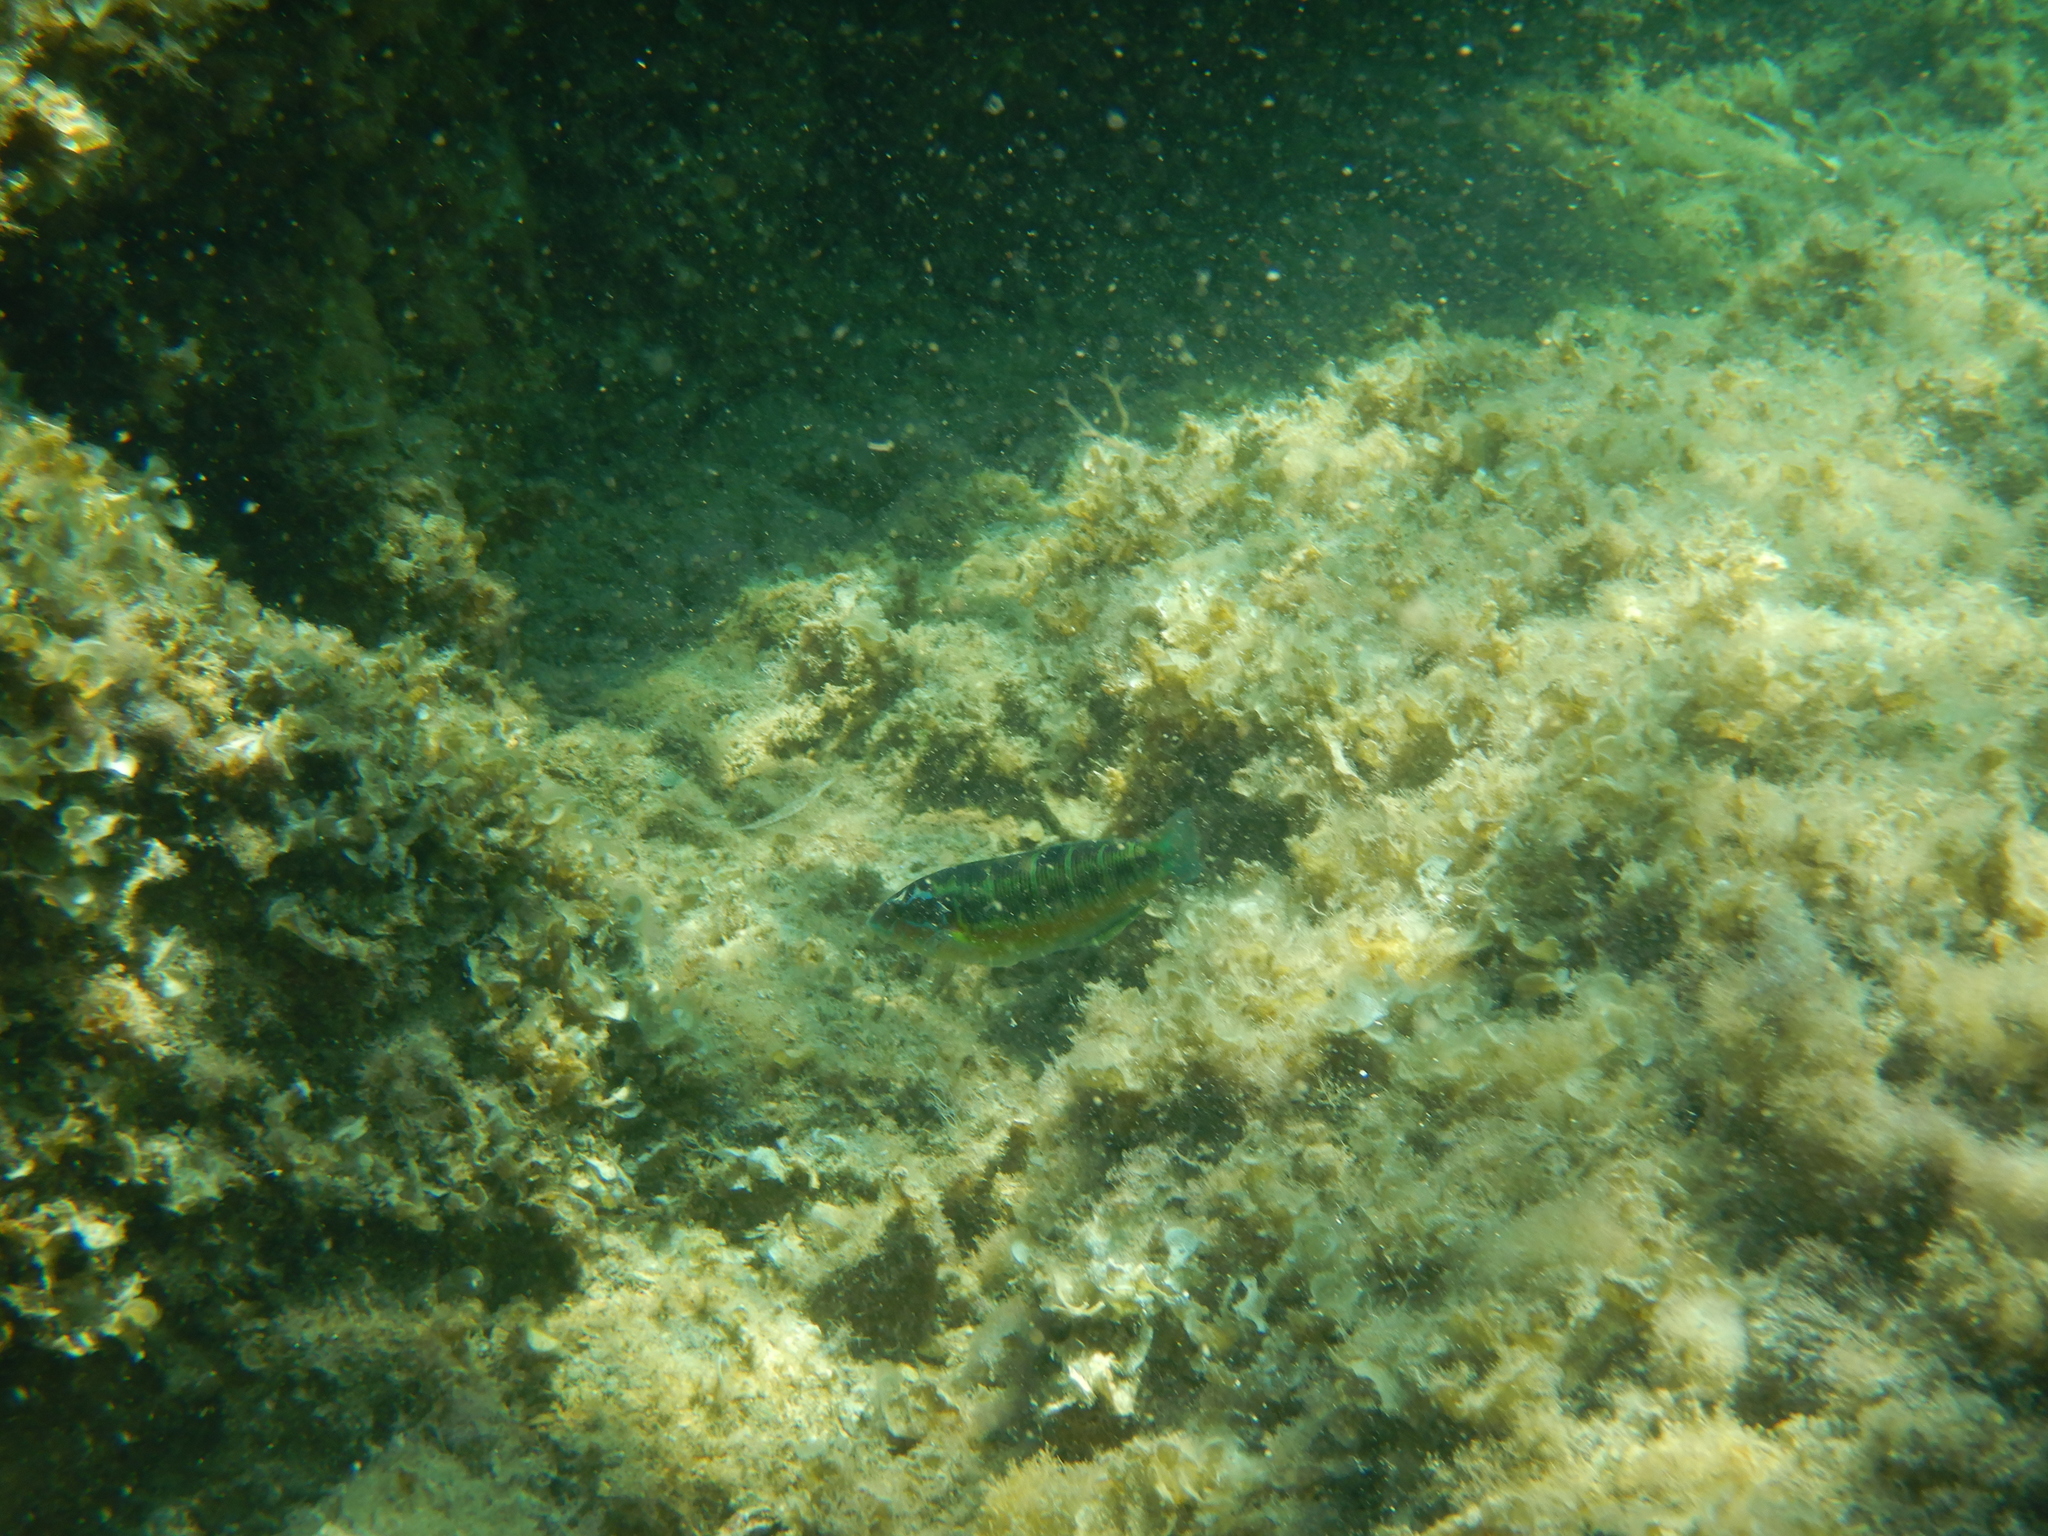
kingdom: Animalia
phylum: Chordata
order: Perciformes
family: Labridae
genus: Thalassoma
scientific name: Thalassoma pavo
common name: Ornate wrasse
